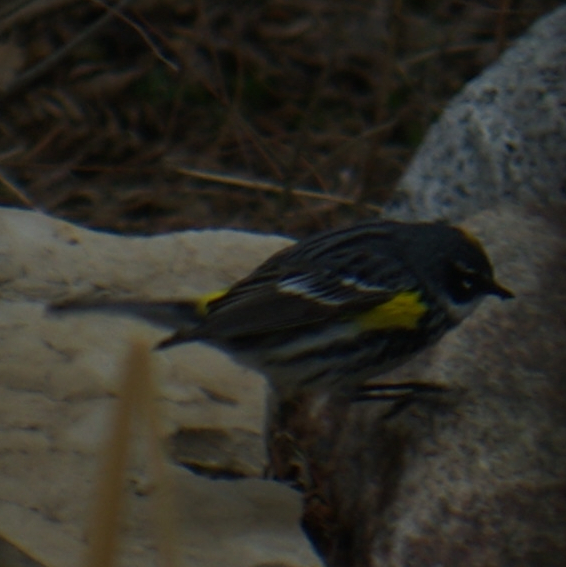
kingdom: Animalia
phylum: Chordata
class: Aves
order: Passeriformes
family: Parulidae
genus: Setophaga
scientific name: Setophaga coronata
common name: Myrtle warbler
